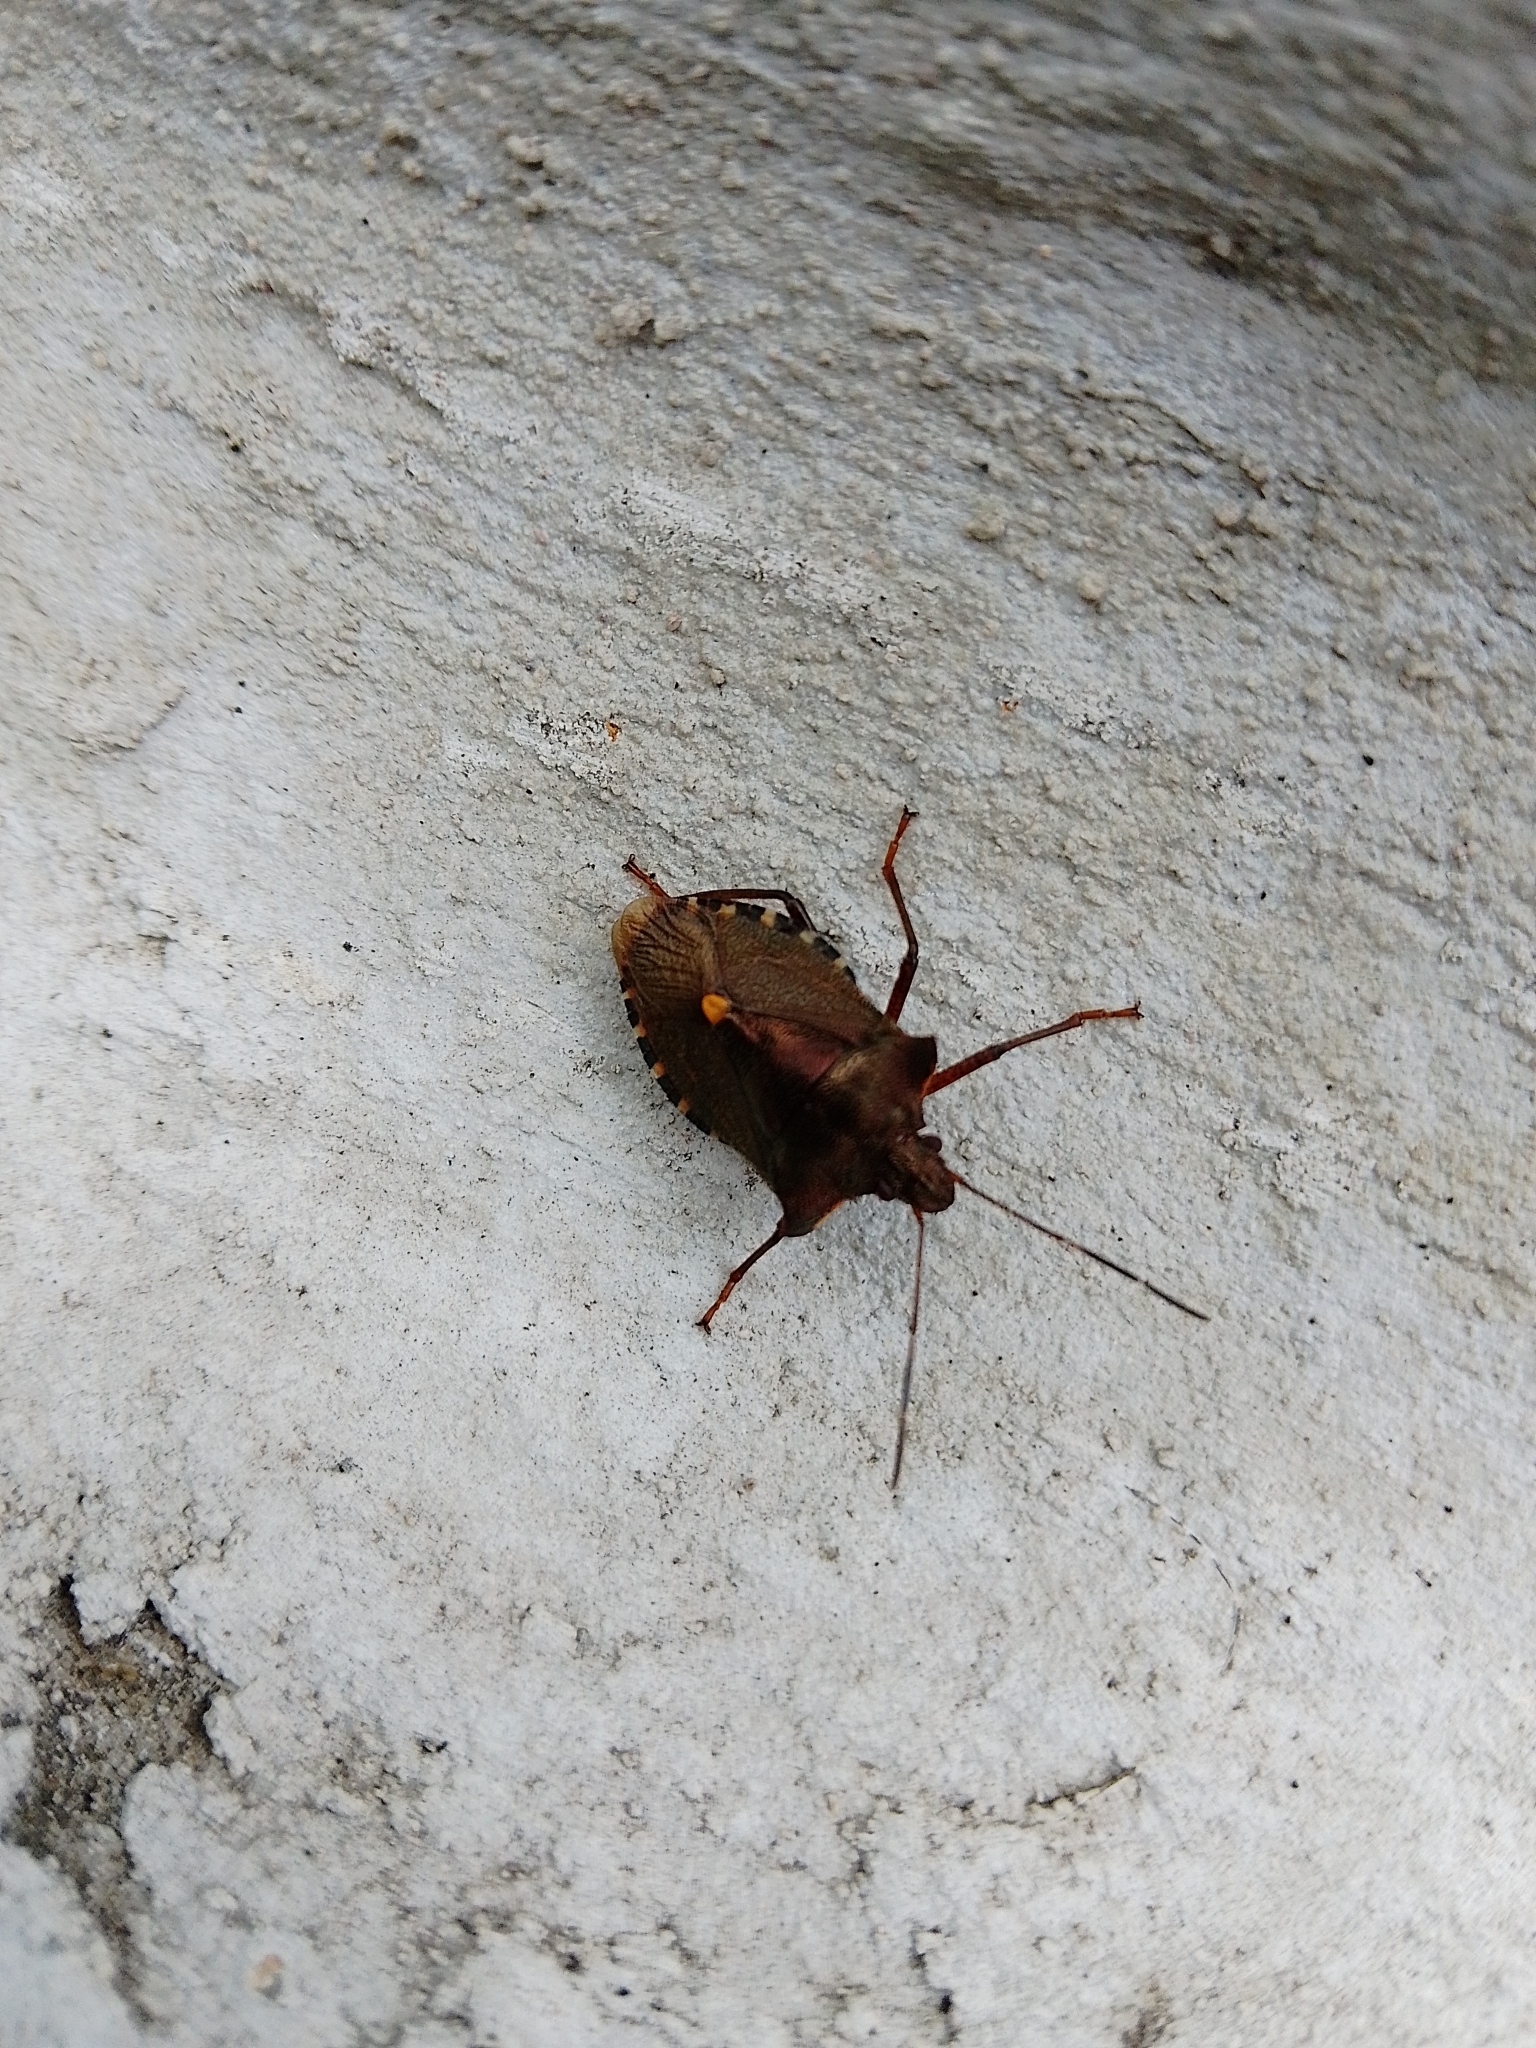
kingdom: Animalia
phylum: Arthropoda
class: Insecta
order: Hemiptera
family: Pentatomidae
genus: Pentatoma
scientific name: Pentatoma rufipes
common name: Forest bug
